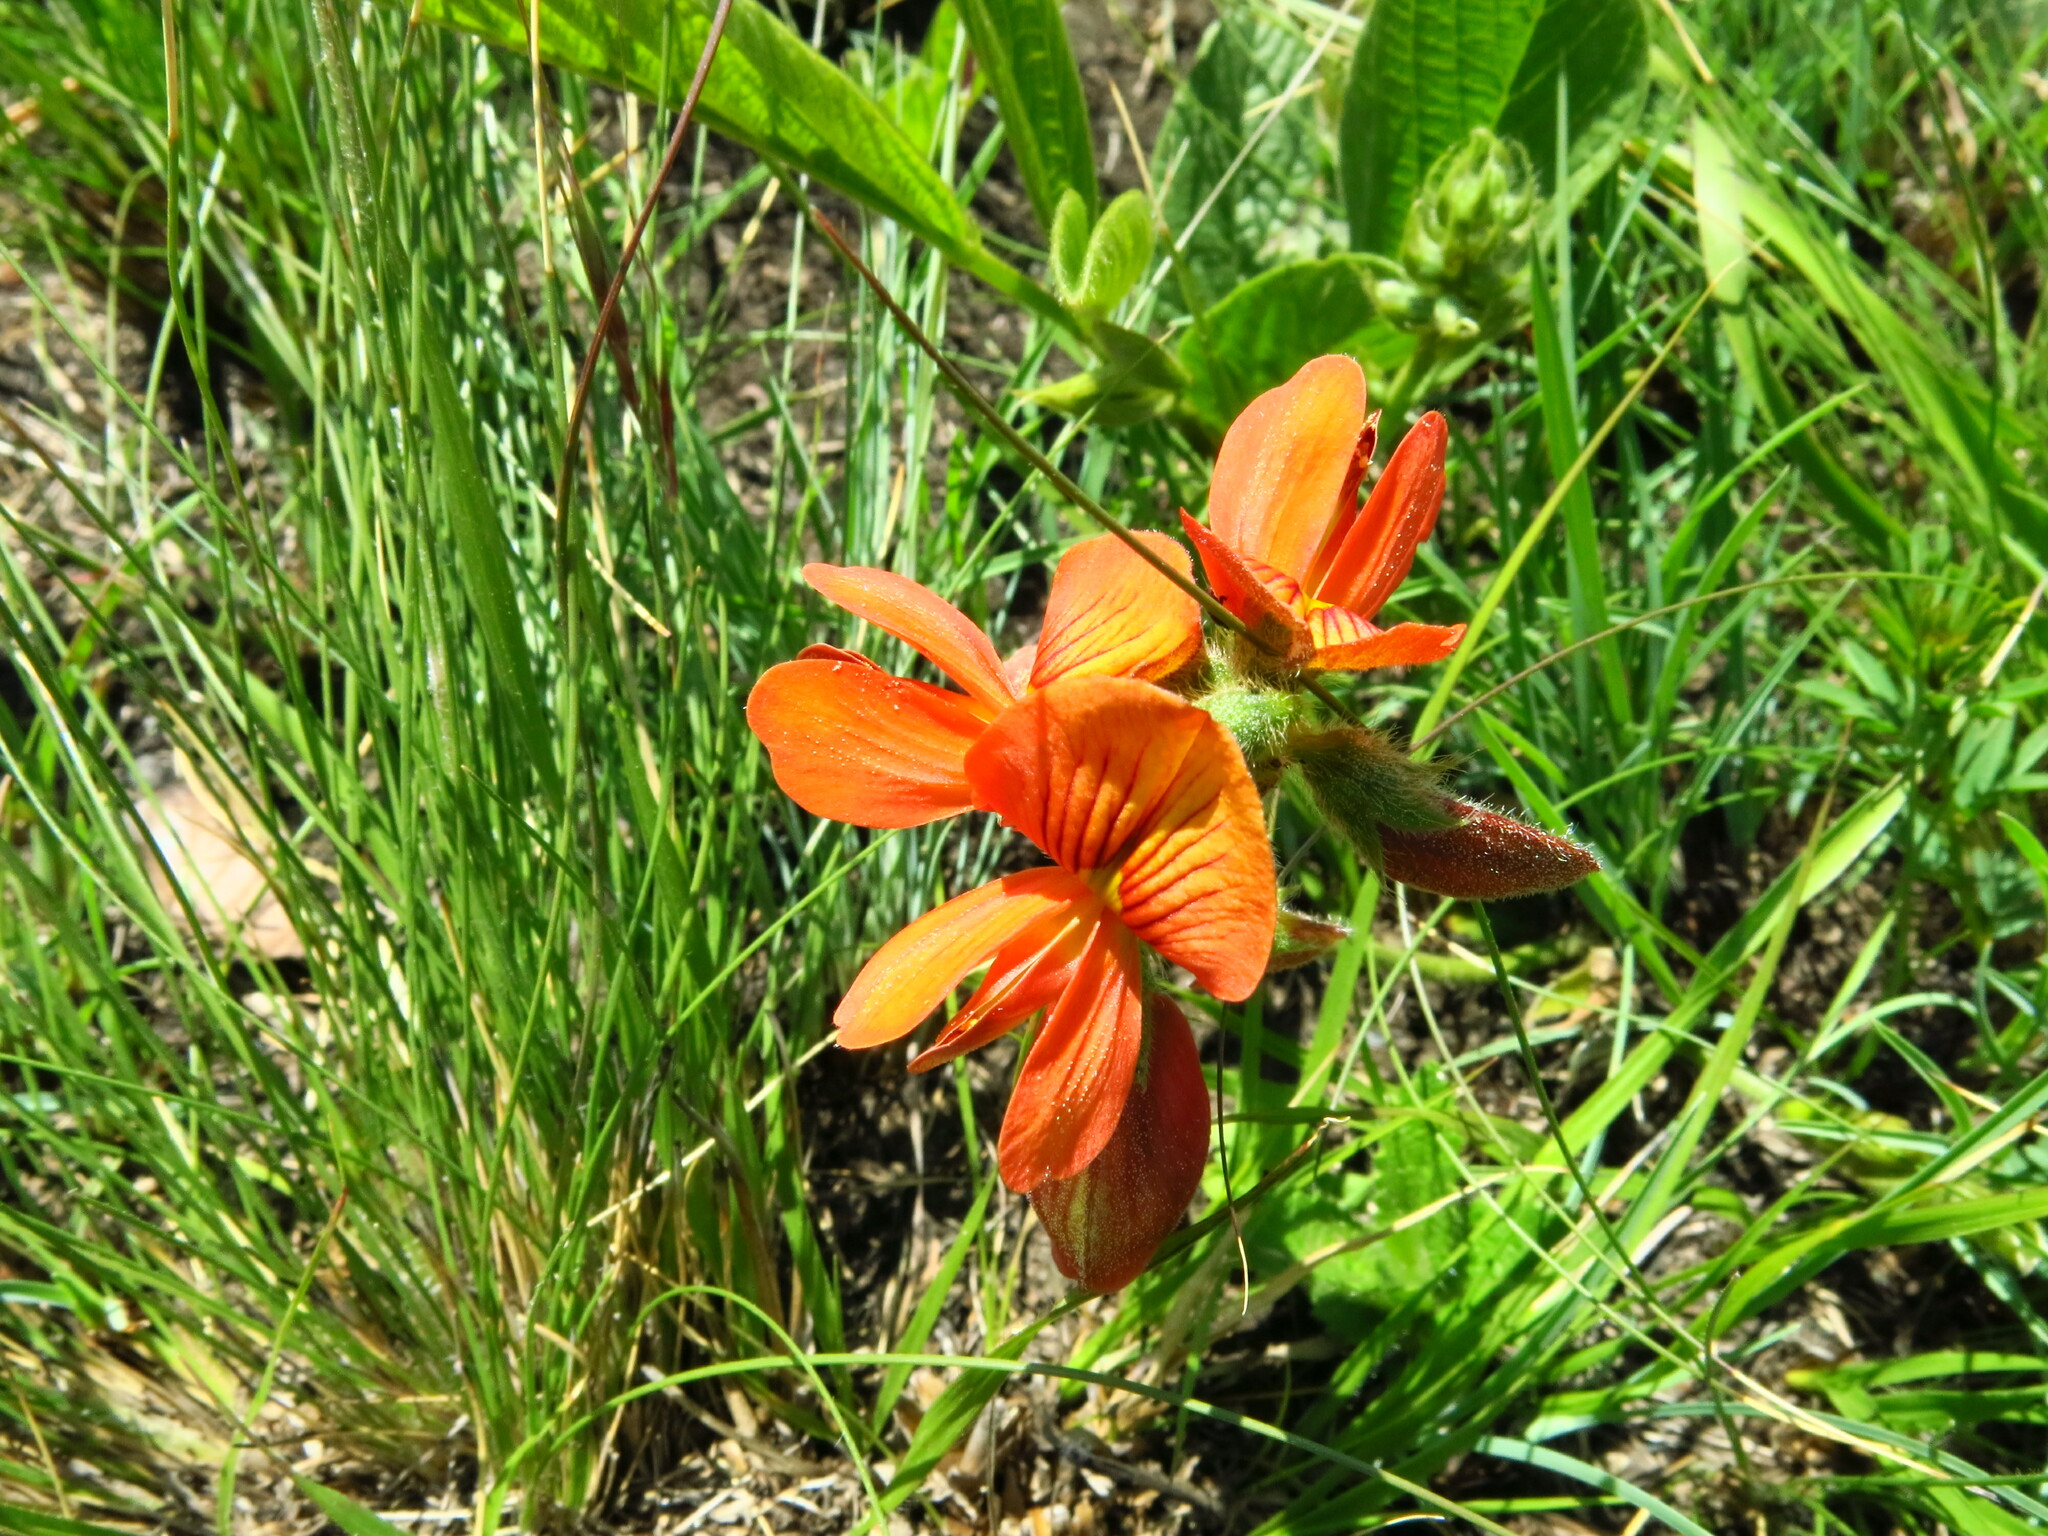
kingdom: Plantae
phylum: Tracheophyta
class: Magnoliopsida
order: Fabales
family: Fabaceae
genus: Eriosema
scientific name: Eriosema distinctum
